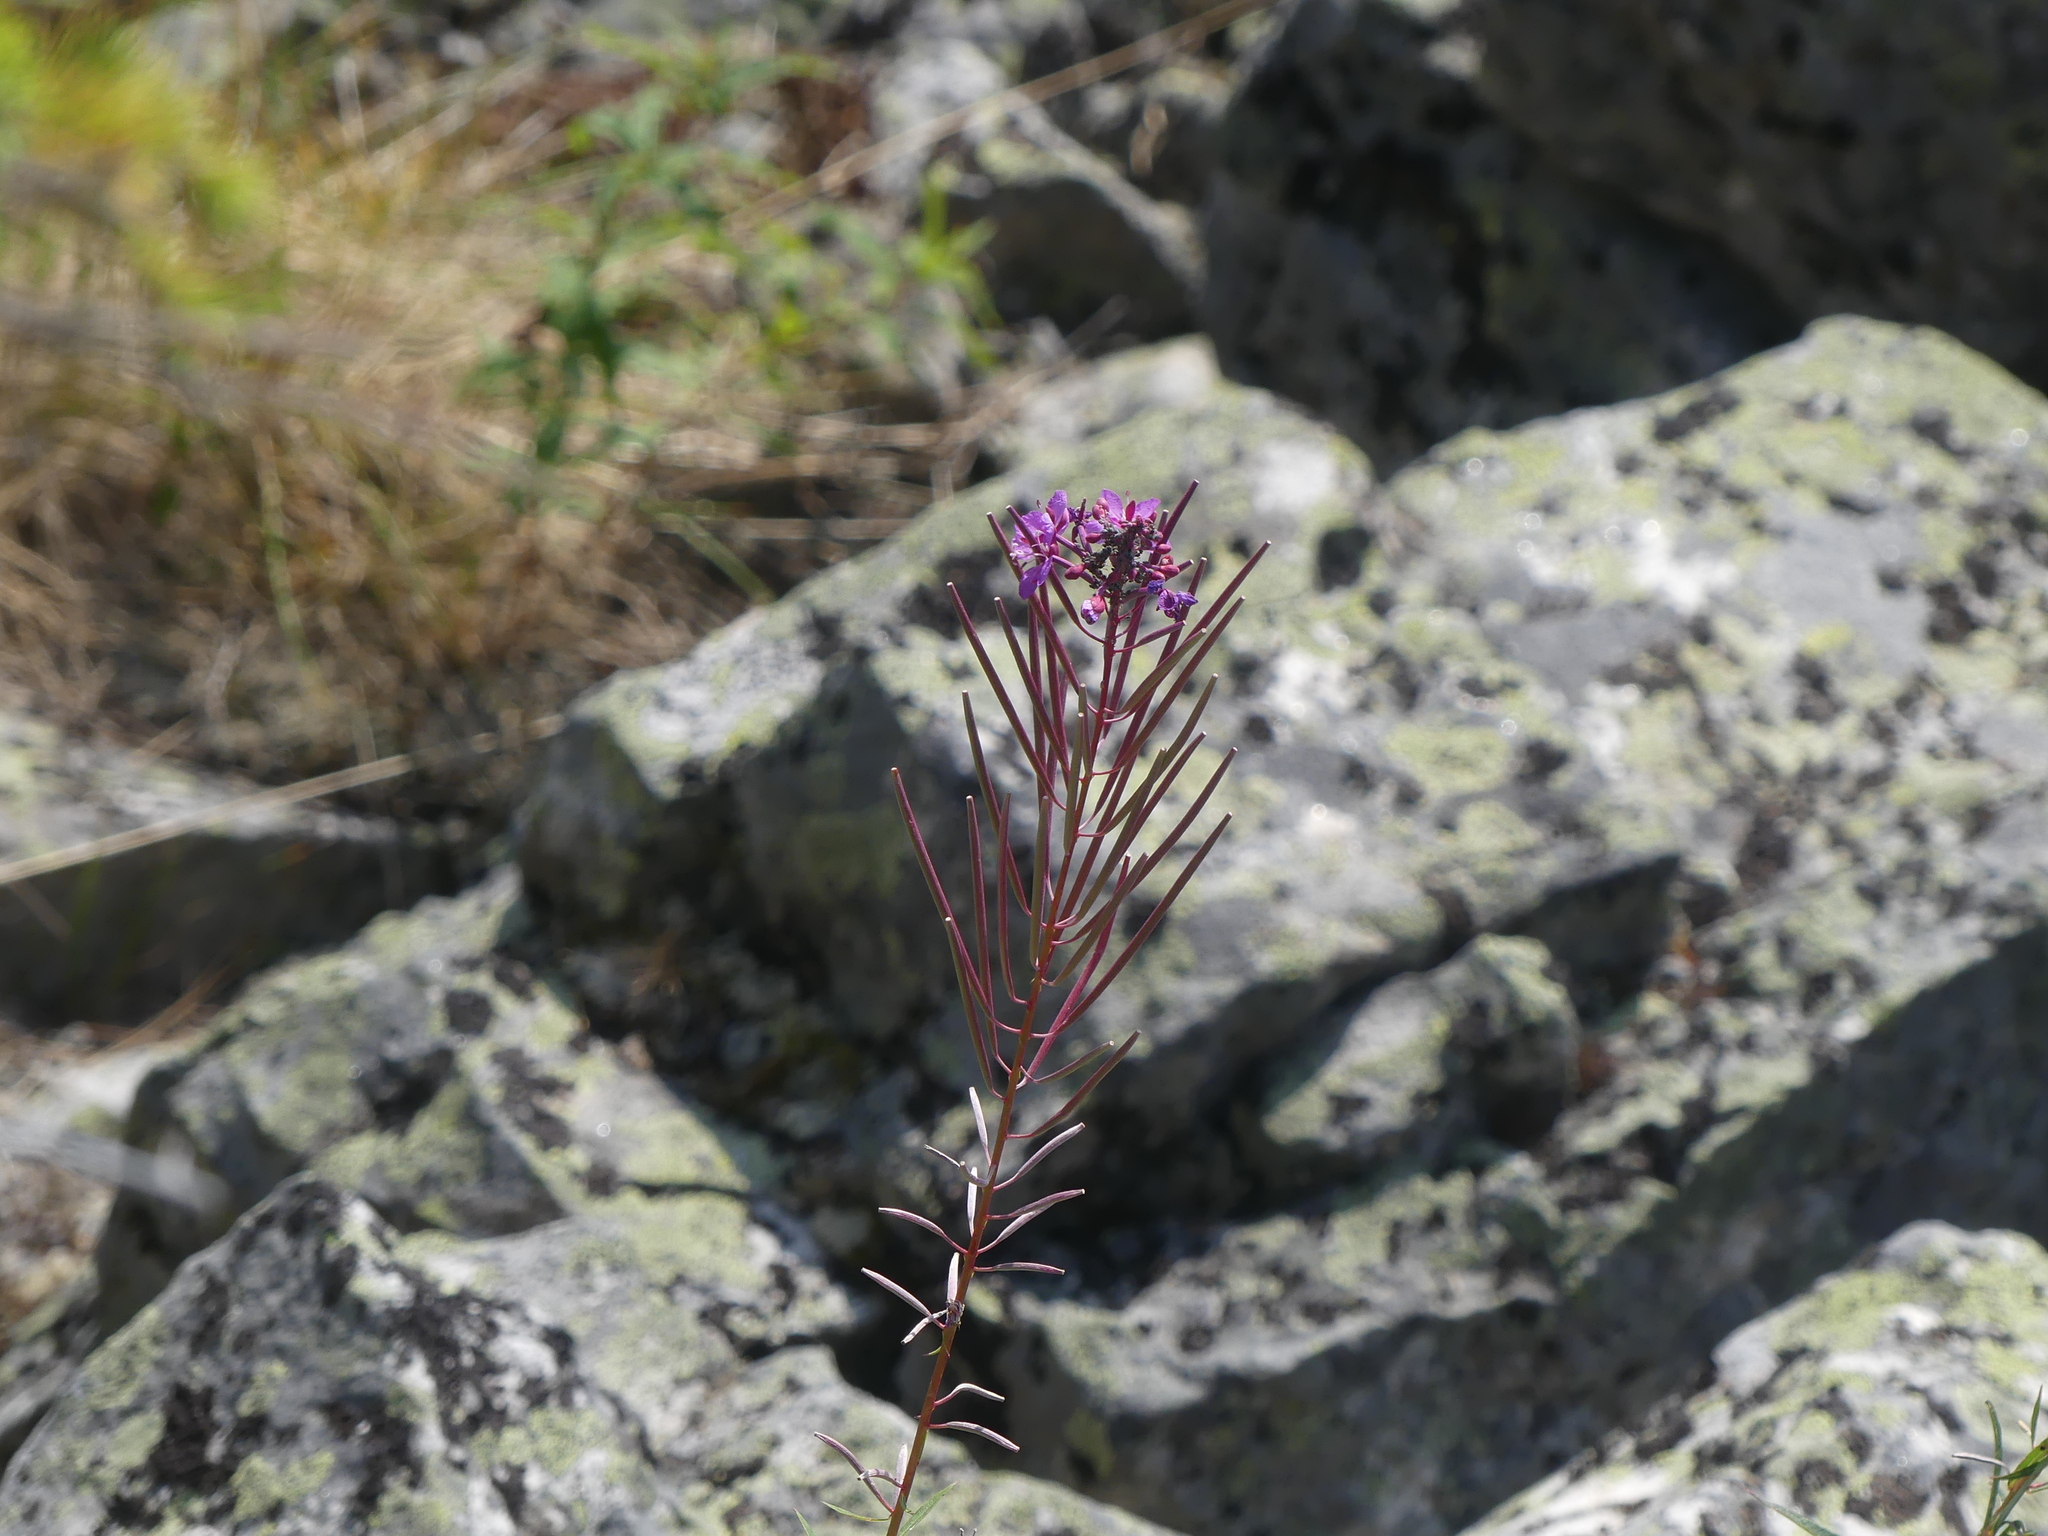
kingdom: Plantae
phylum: Tracheophyta
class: Magnoliopsida
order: Myrtales
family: Onagraceae
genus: Chamaenerion
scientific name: Chamaenerion angustifolium
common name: Fireweed
